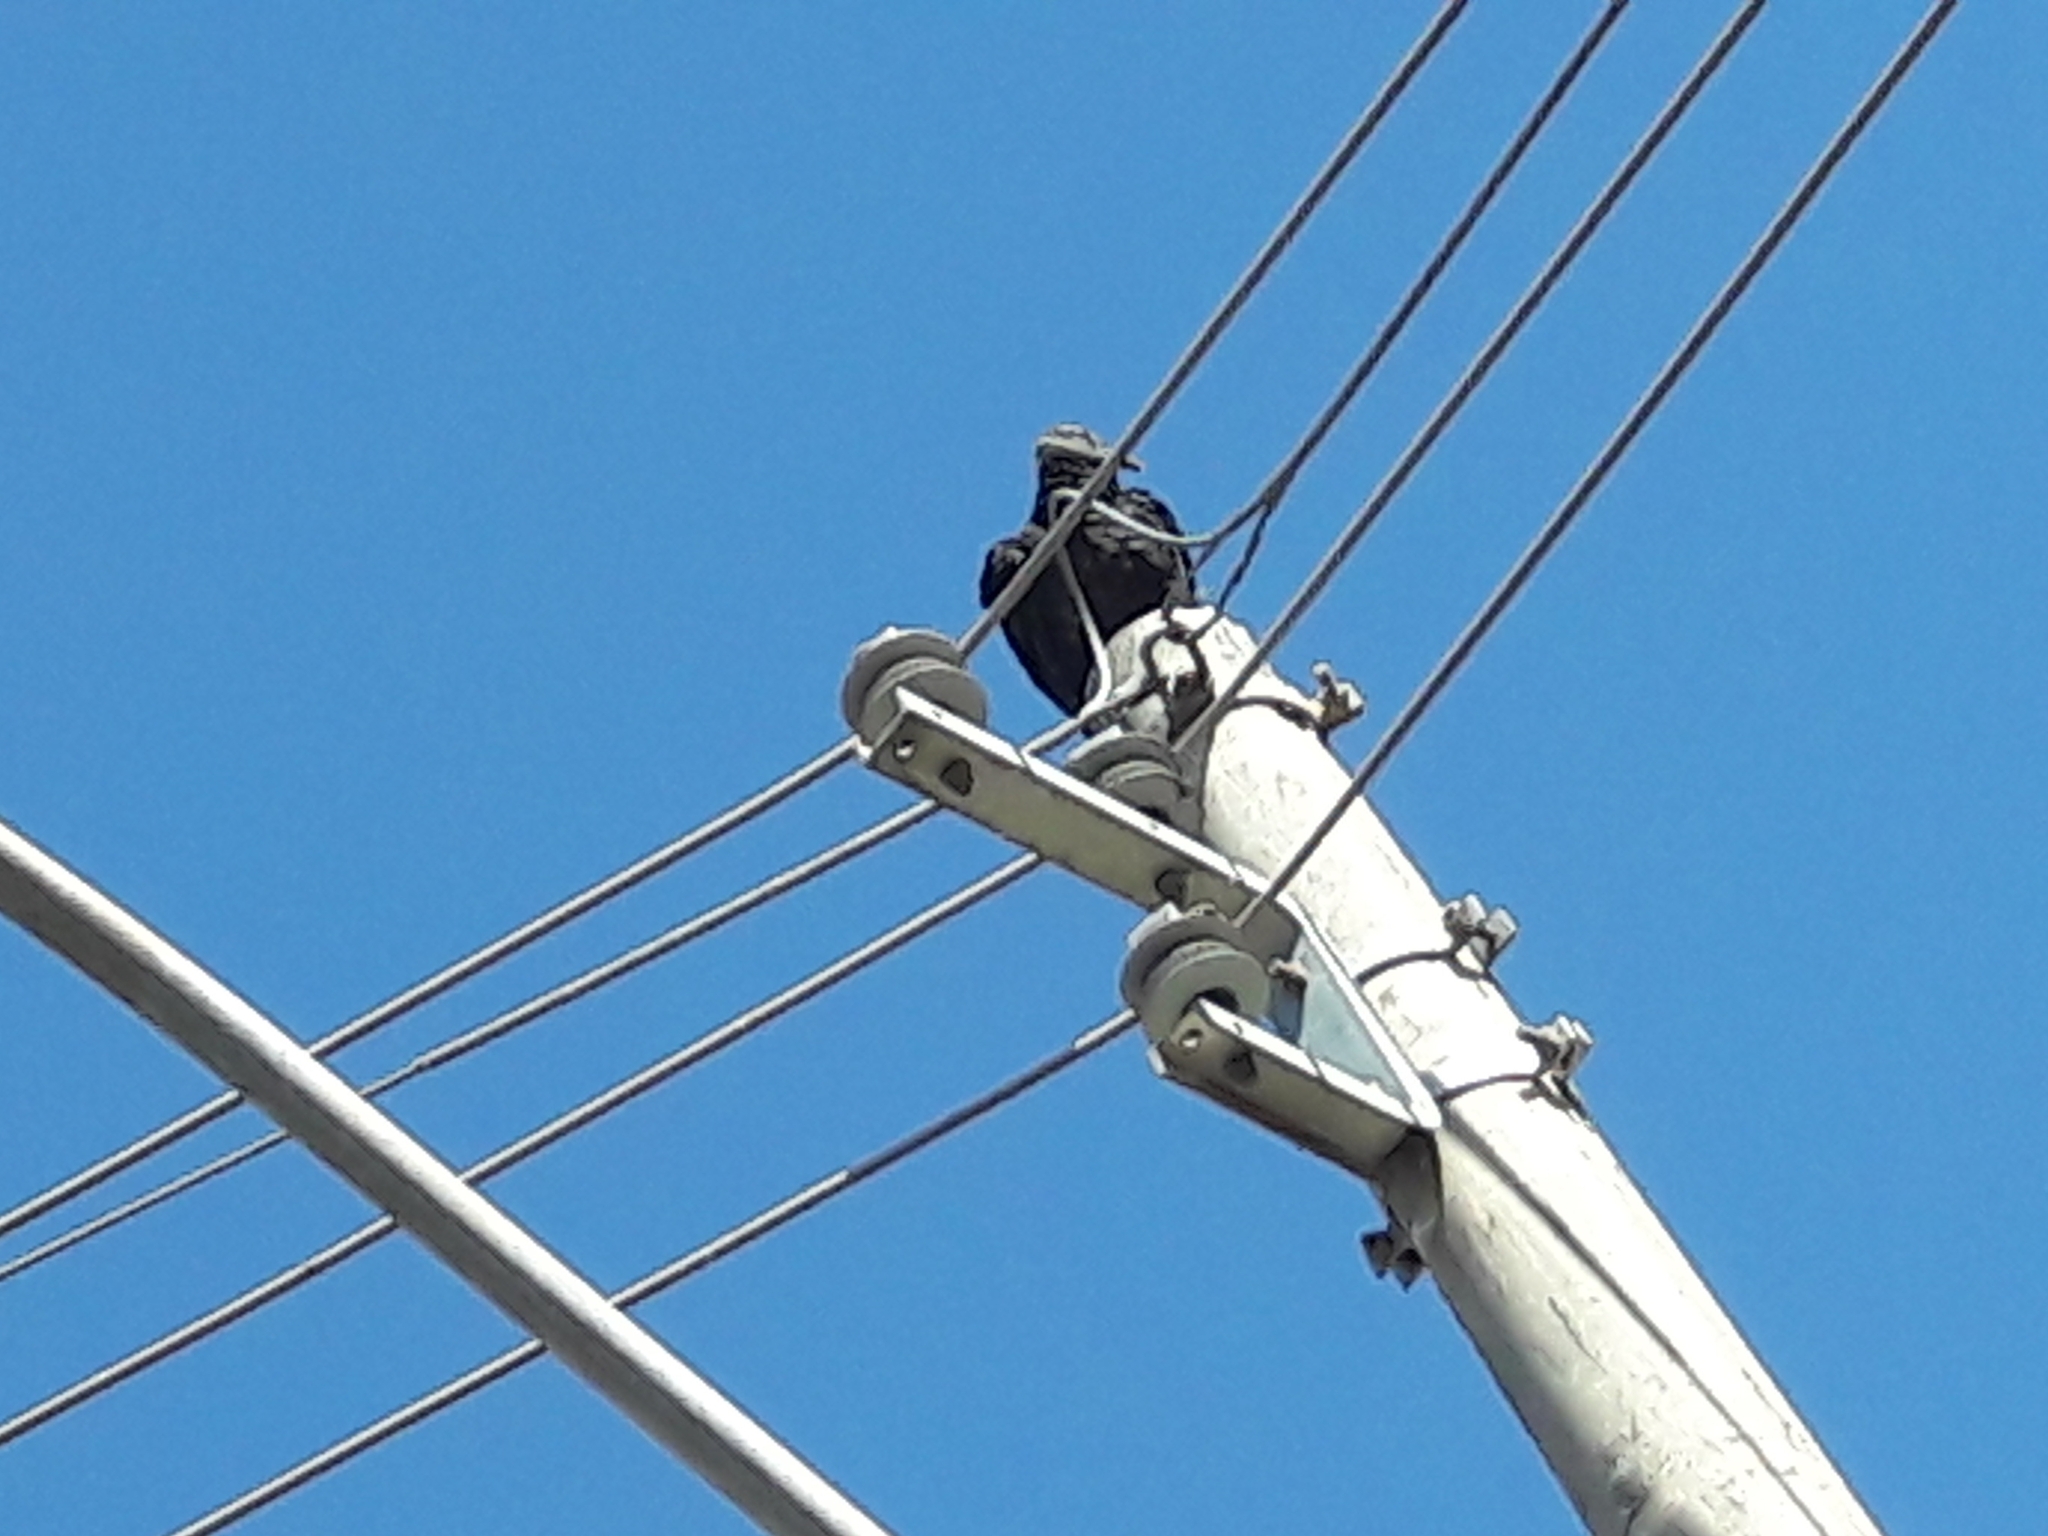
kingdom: Animalia
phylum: Chordata
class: Aves
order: Accipitriformes
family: Cathartidae
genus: Coragyps
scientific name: Coragyps atratus
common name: Black vulture
